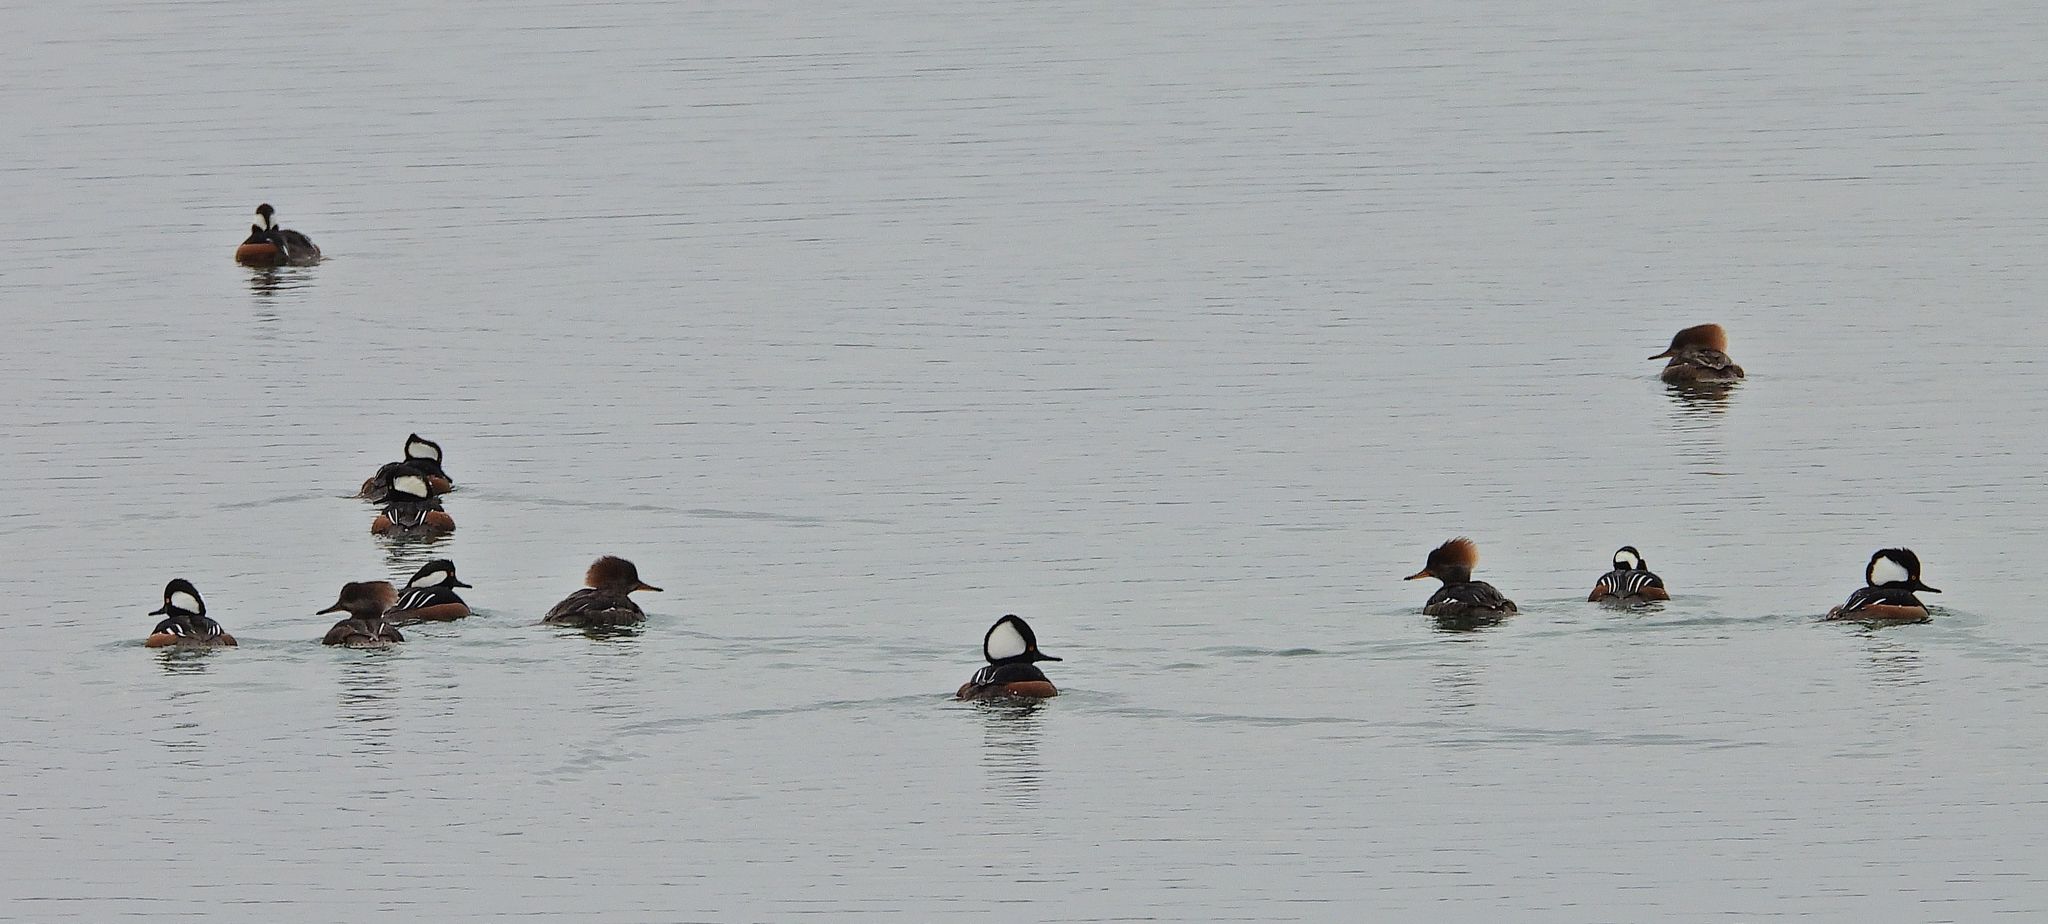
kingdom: Animalia
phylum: Chordata
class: Aves
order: Anseriformes
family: Anatidae
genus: Lophodytes
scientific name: Lophodytes cucullatus
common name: Hooded merganser
